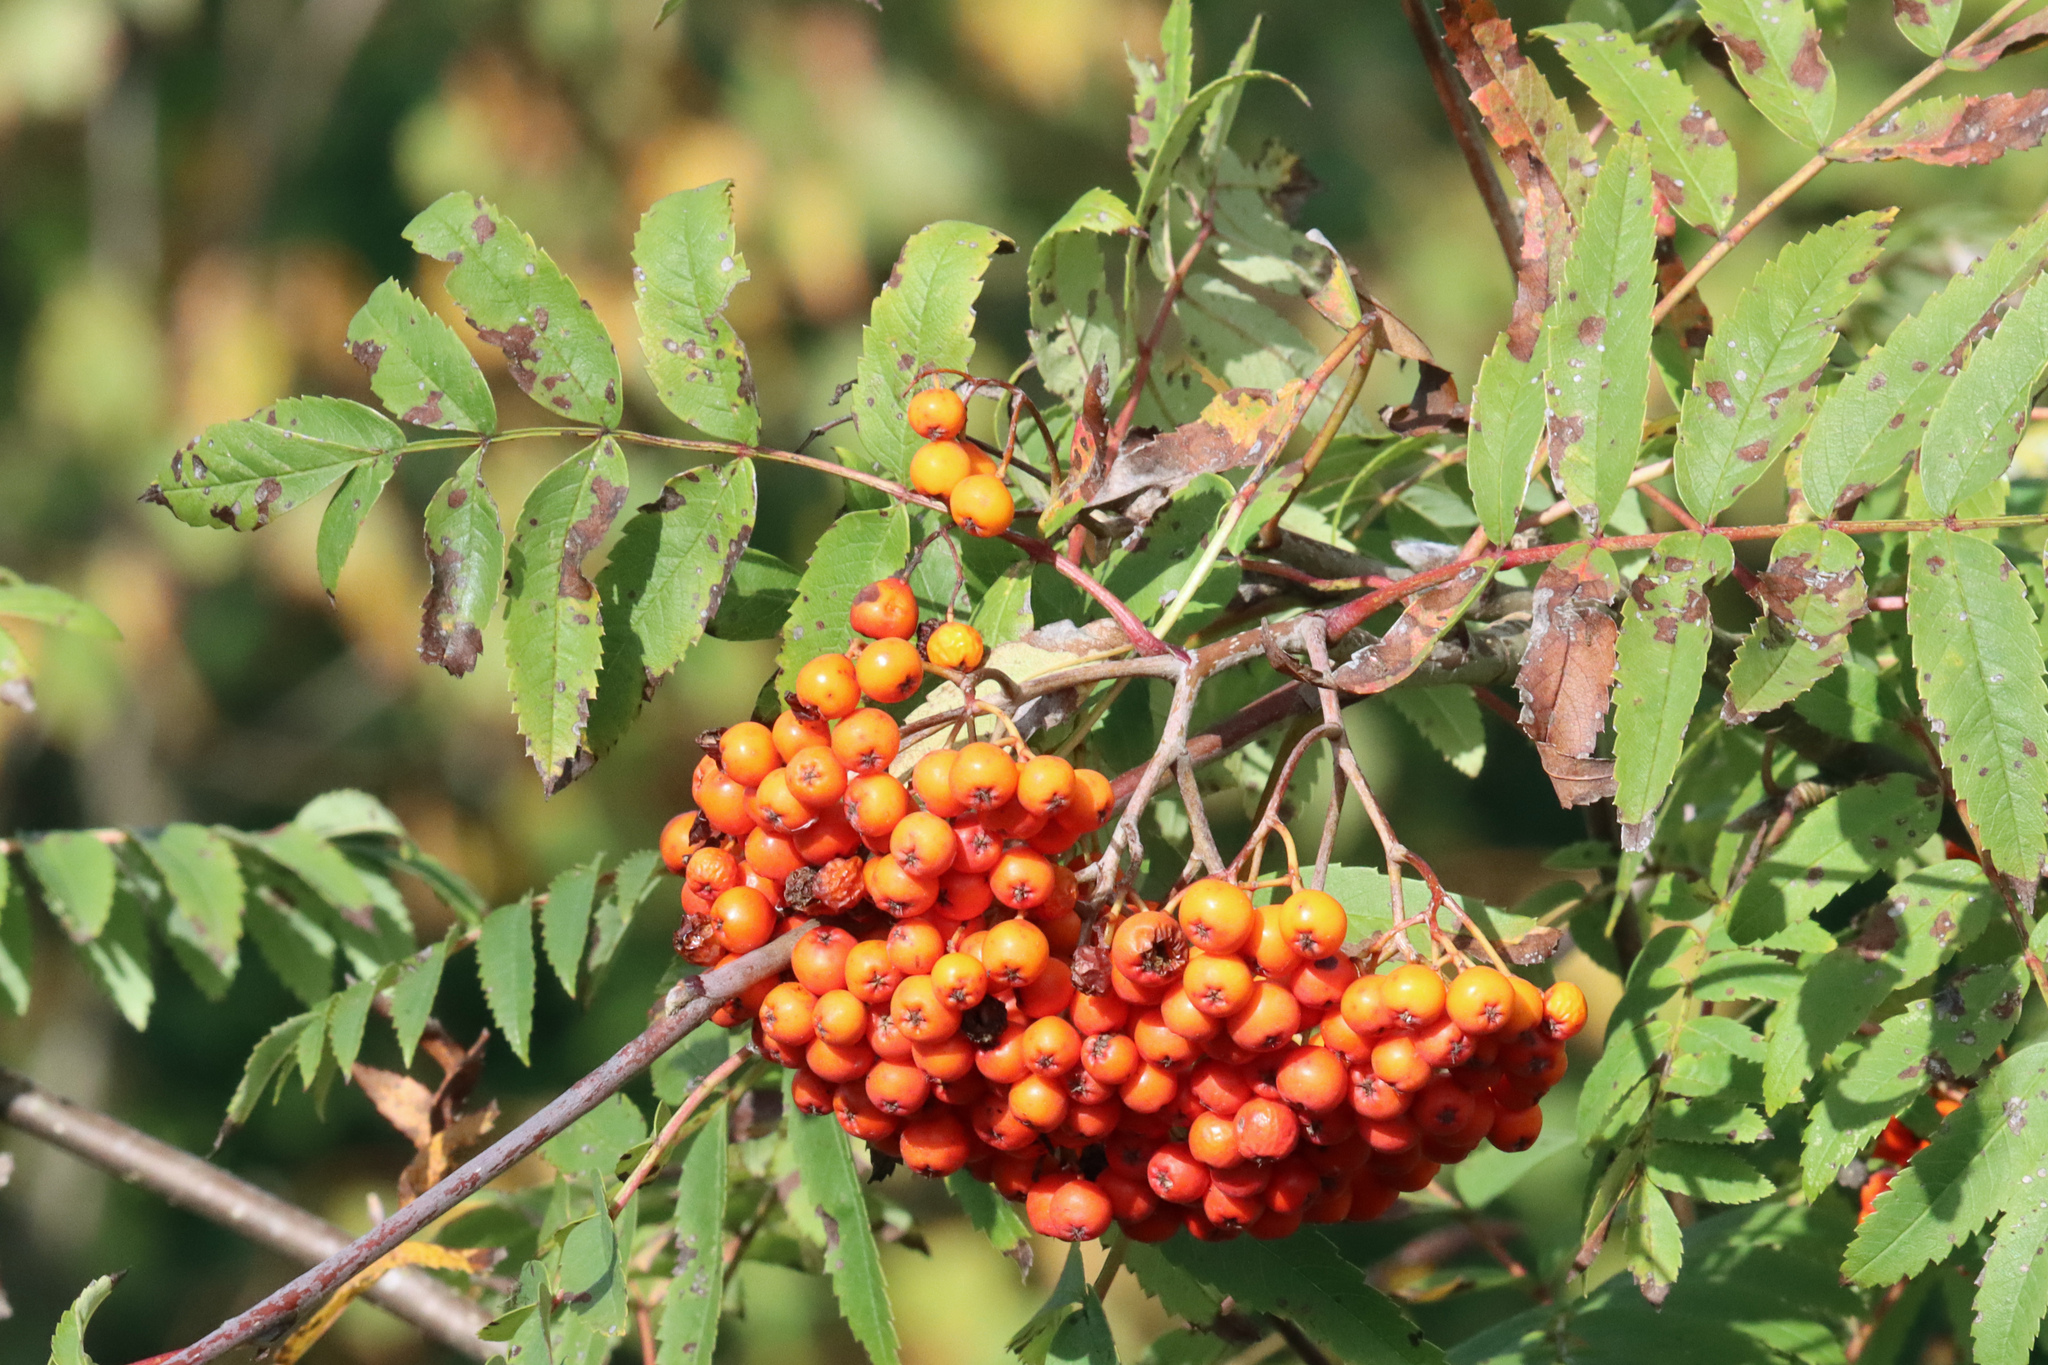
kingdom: Plantae
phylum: Tracheophyta
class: Magnoliopsida
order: Rosales
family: Rosaceae
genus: Sorbus
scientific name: Sorbus aucuparia
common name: Rowan
